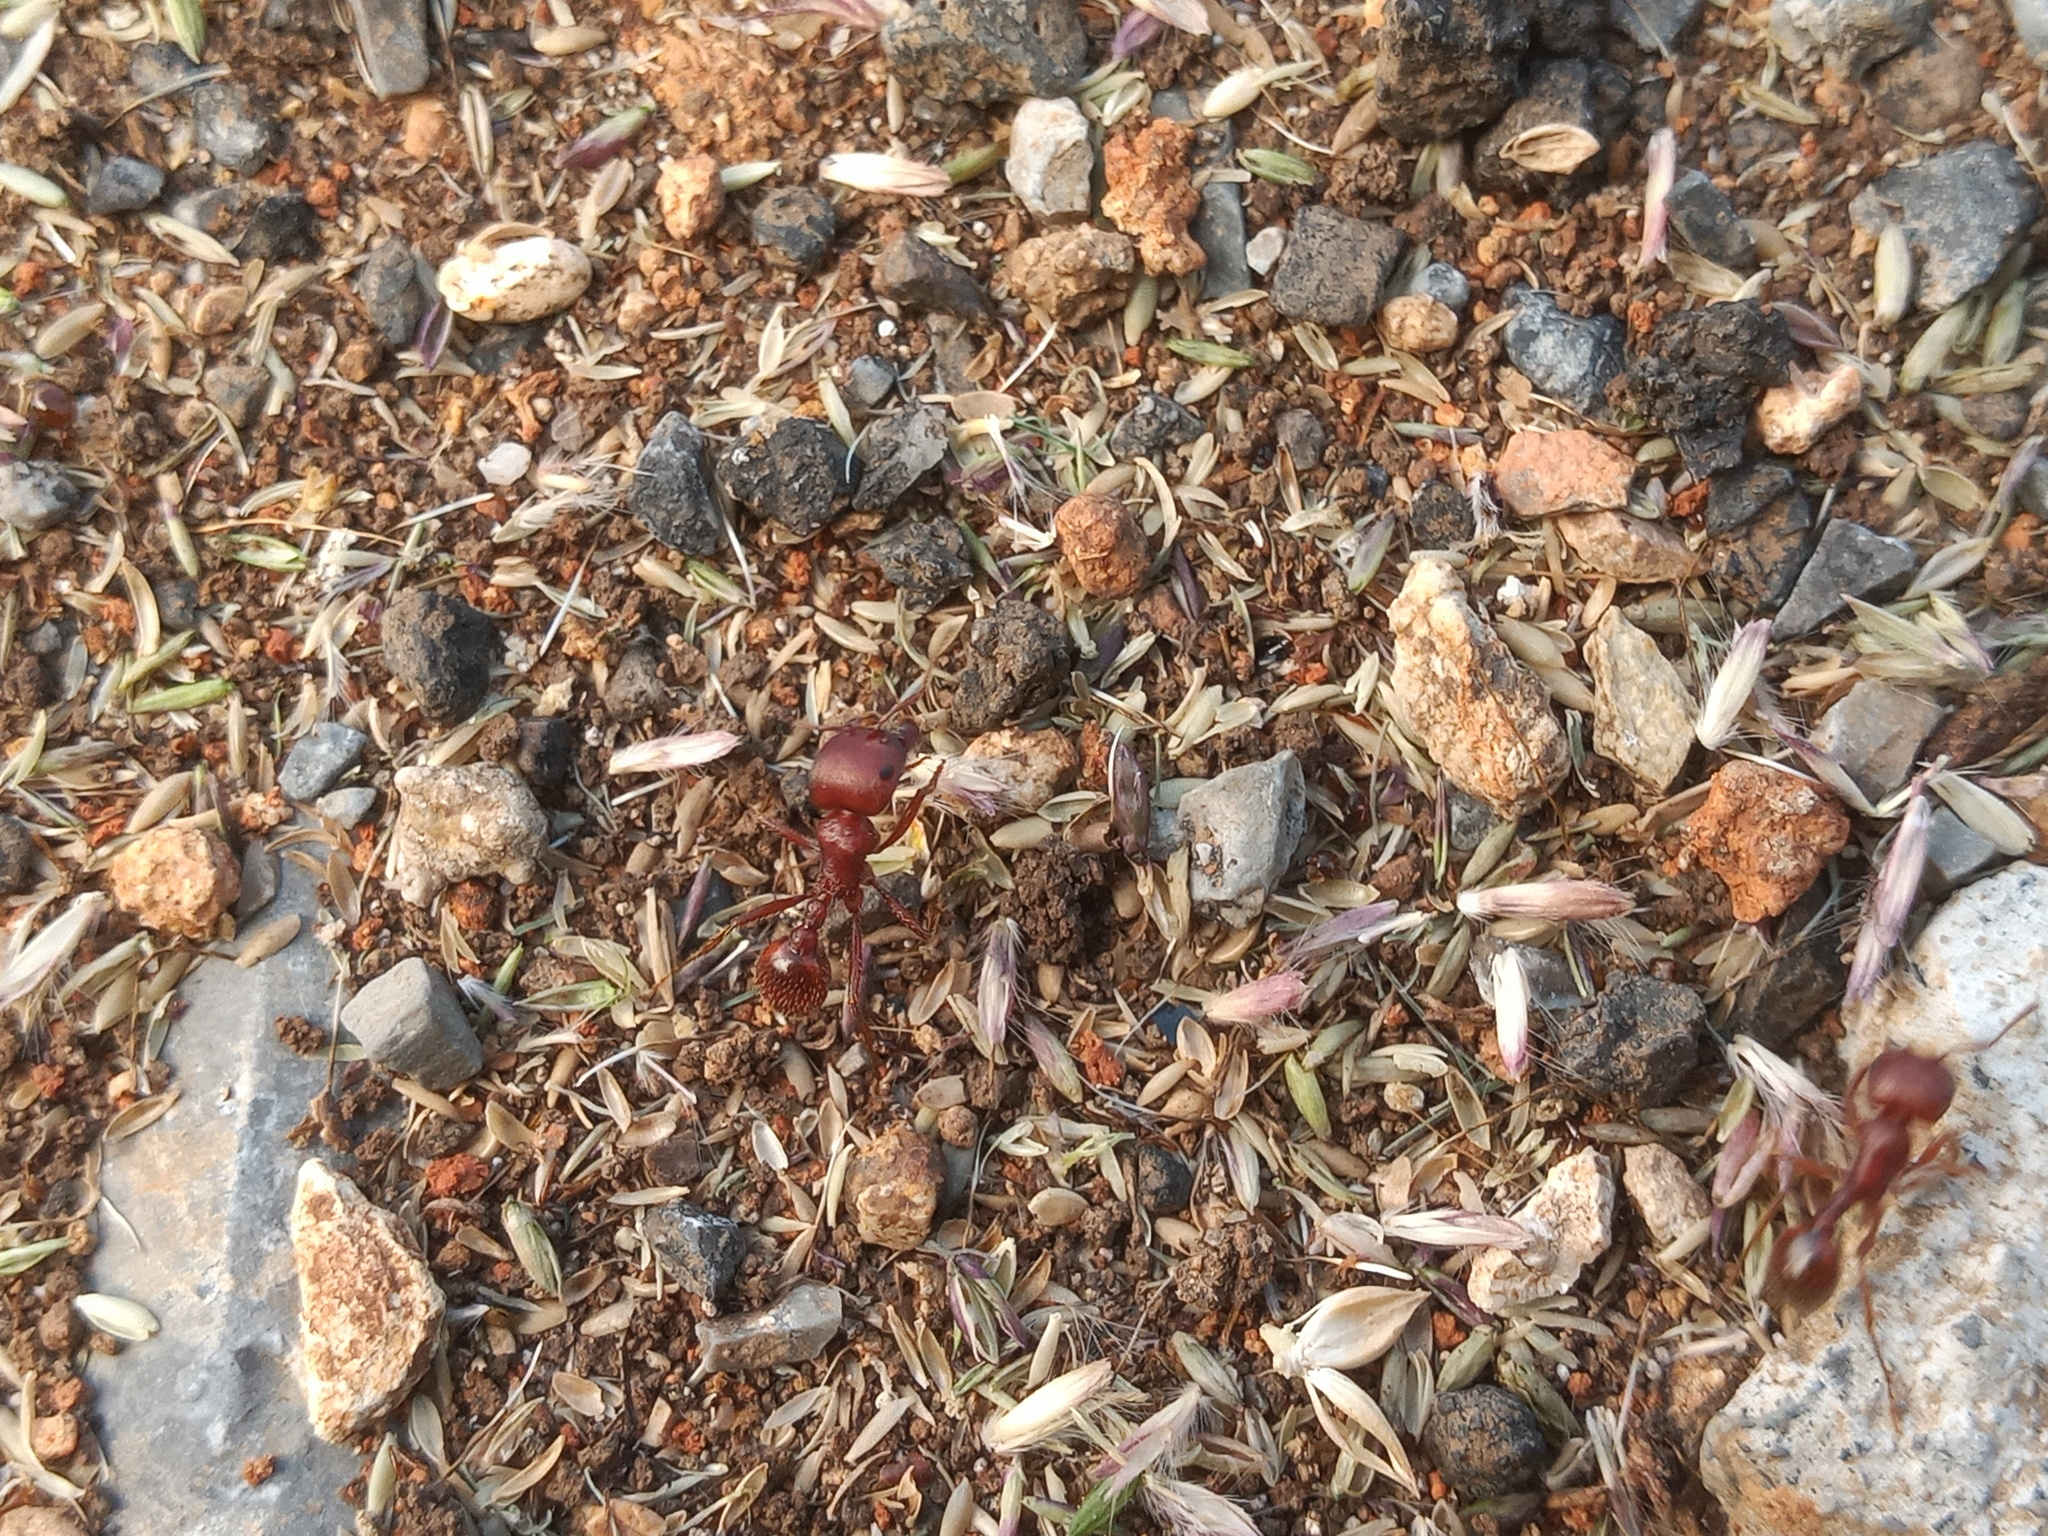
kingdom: Animalia
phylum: Arthropoda
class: Insecta
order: Hymenoptera
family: Formicidae
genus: Pogonomyrmex
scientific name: Pogonomyrmex barbatus
